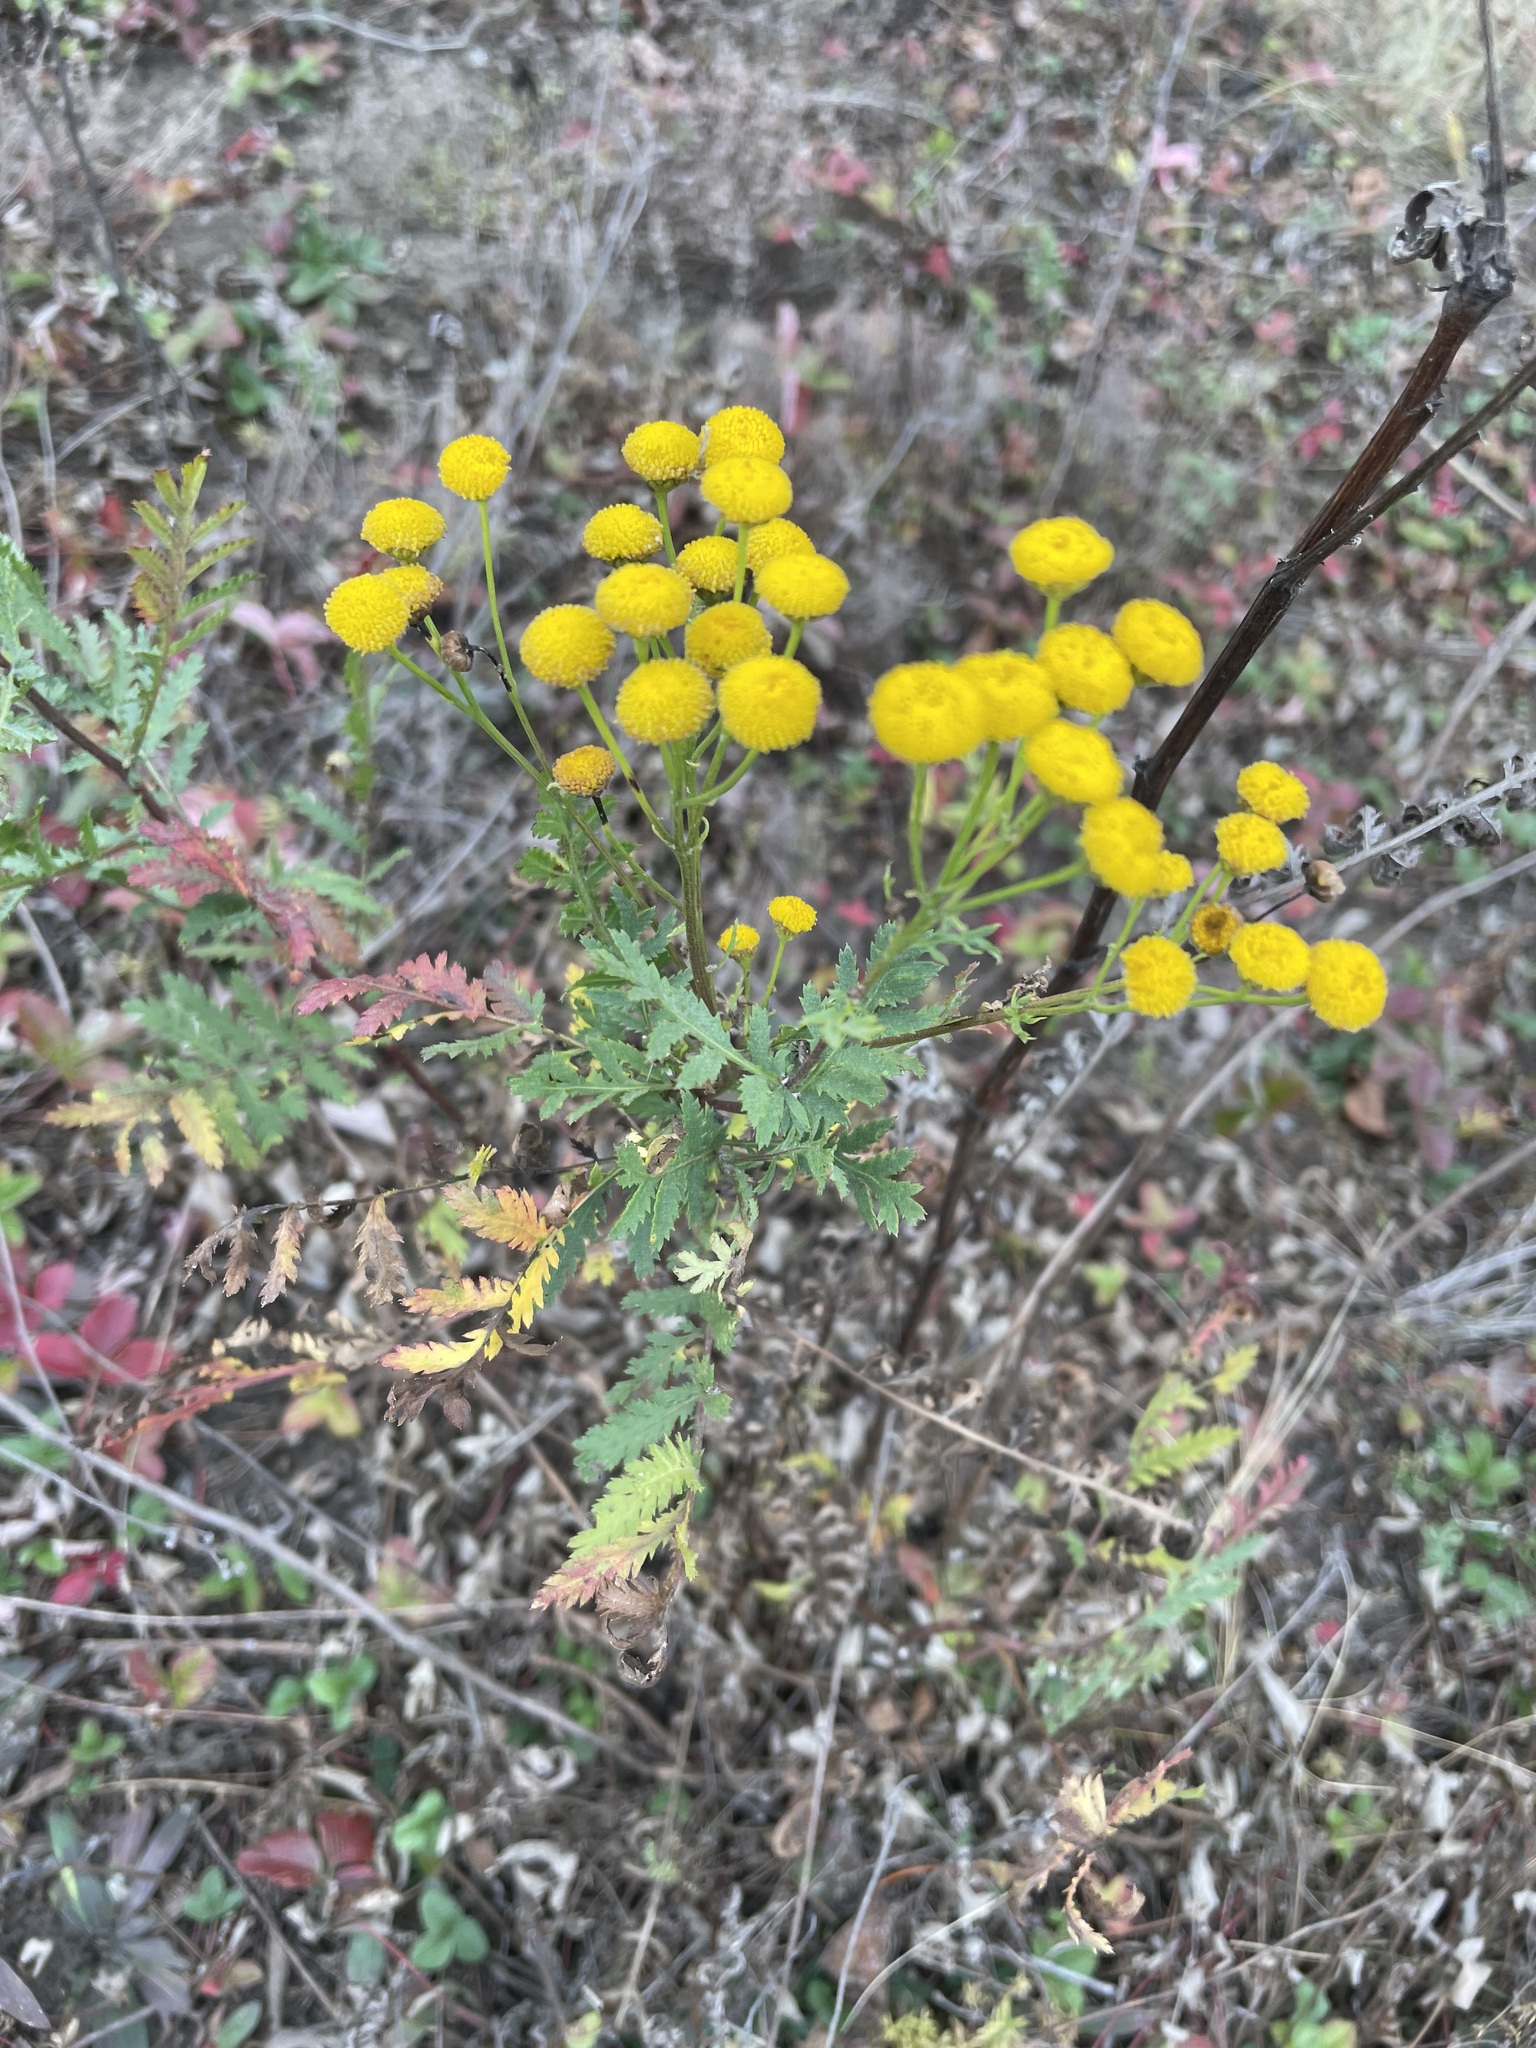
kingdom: Plantae
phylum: Tracheophyta
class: Magnoliopsida
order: Asterales
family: Asteraceae
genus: Tanacetum
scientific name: Tanacetum vulgare
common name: Common tansy
